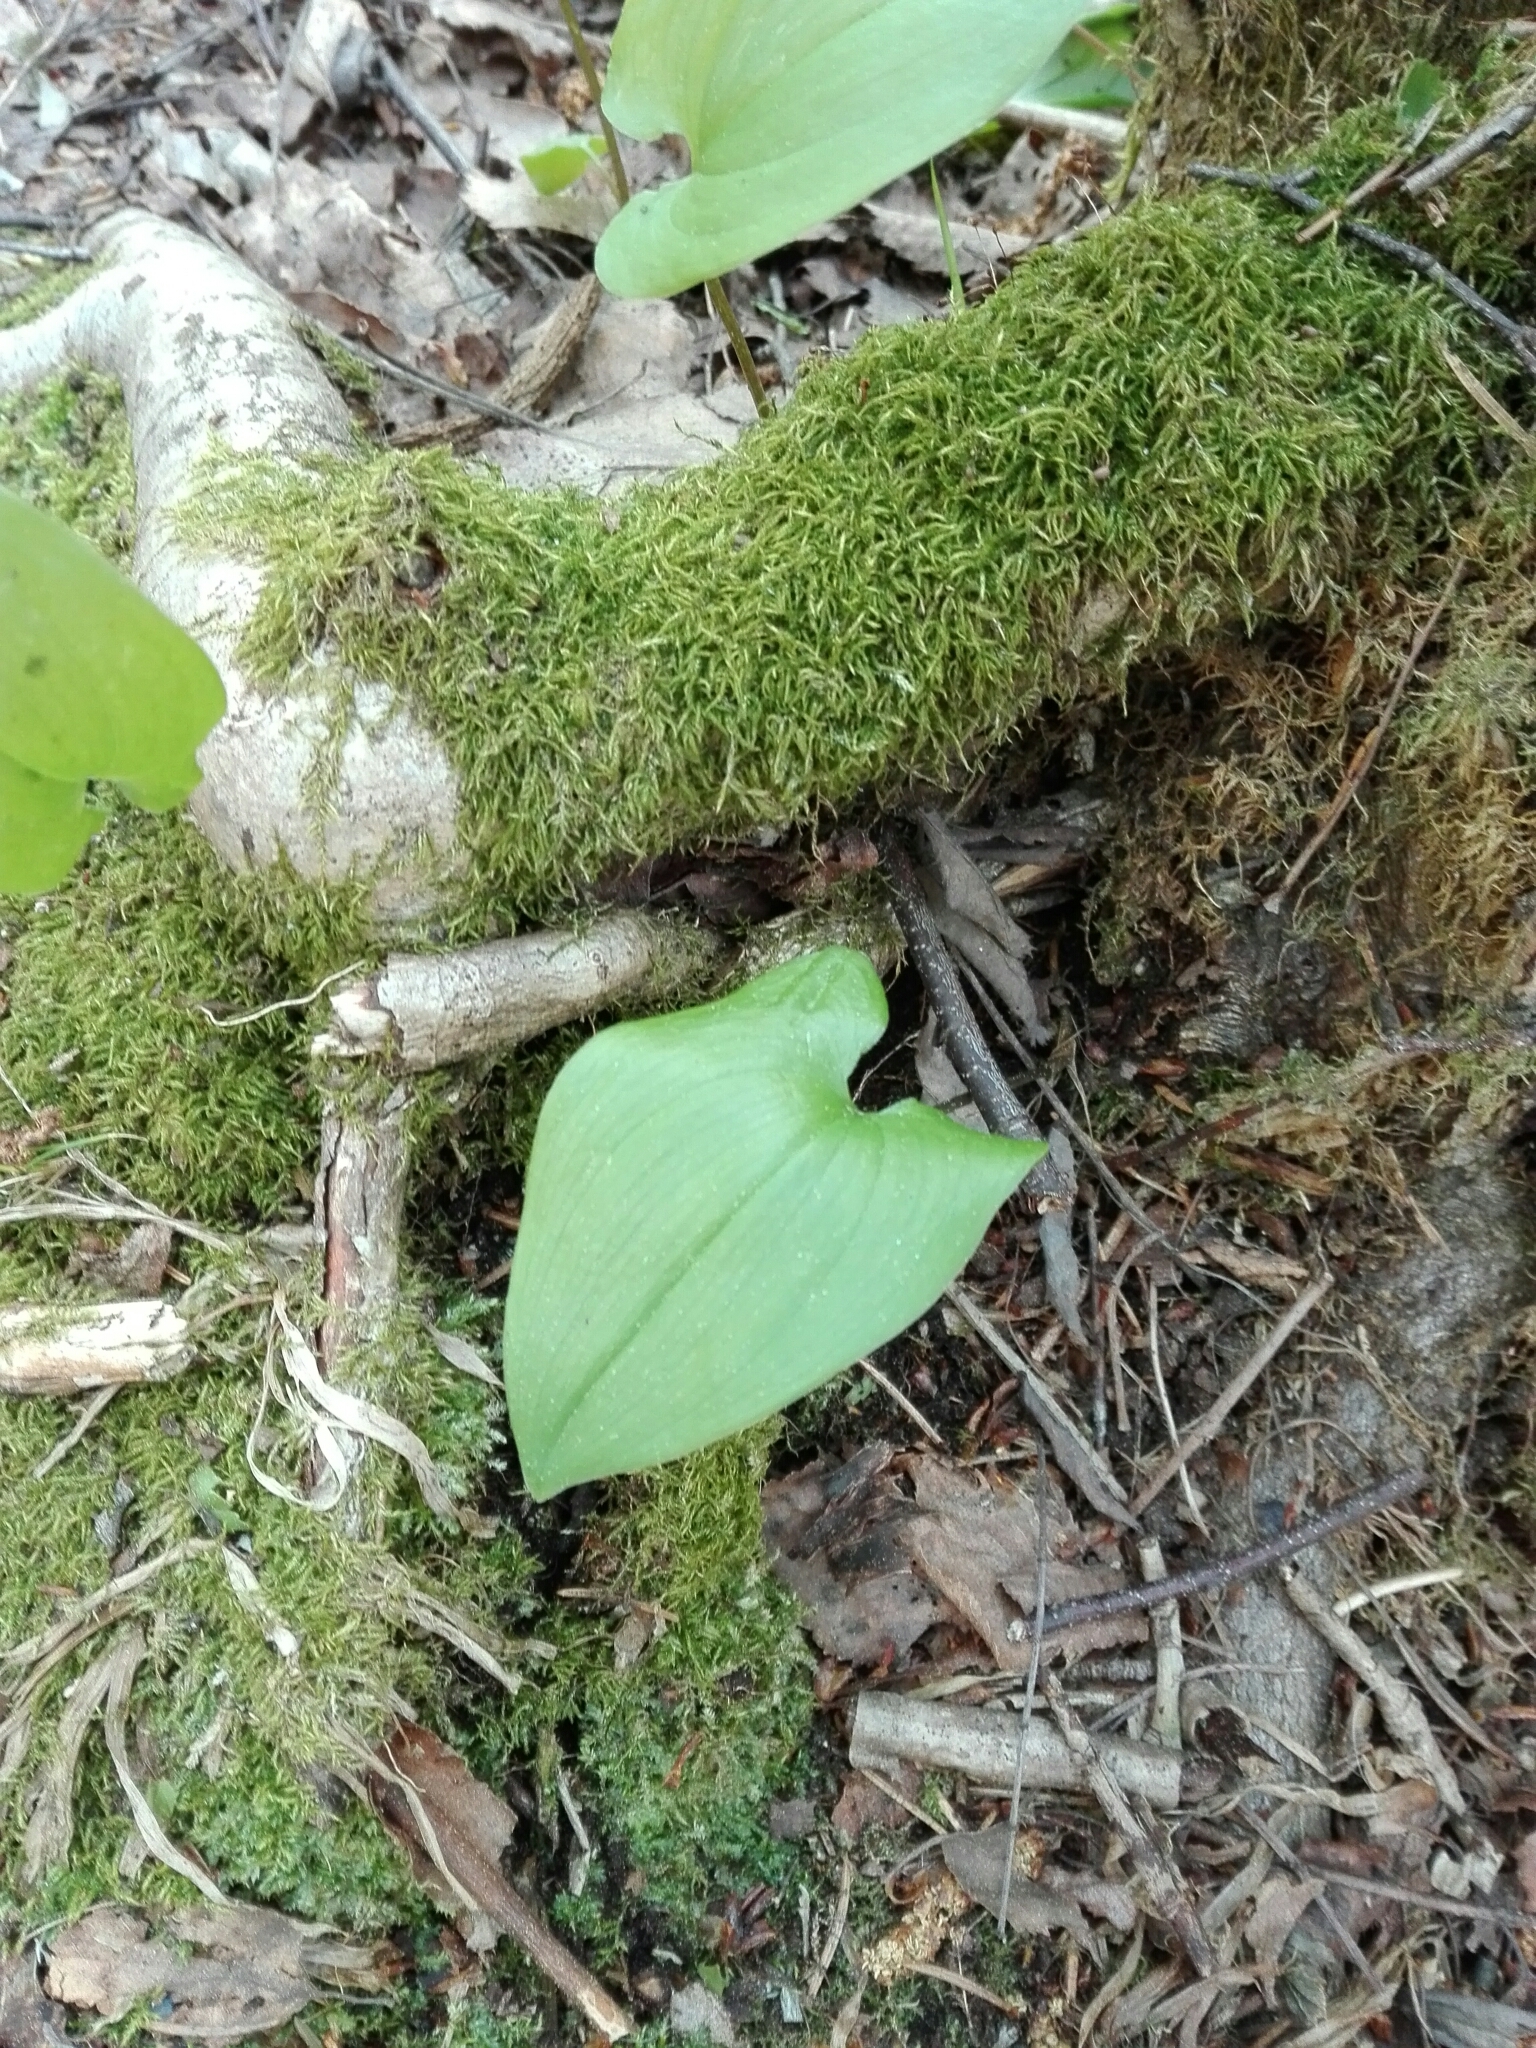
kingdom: Plantae
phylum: Tracheophyta
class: Liliopsida
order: Asparagales
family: Asparagaceae
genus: Maianthemum
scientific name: Maianthemum bifolium
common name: May lily
